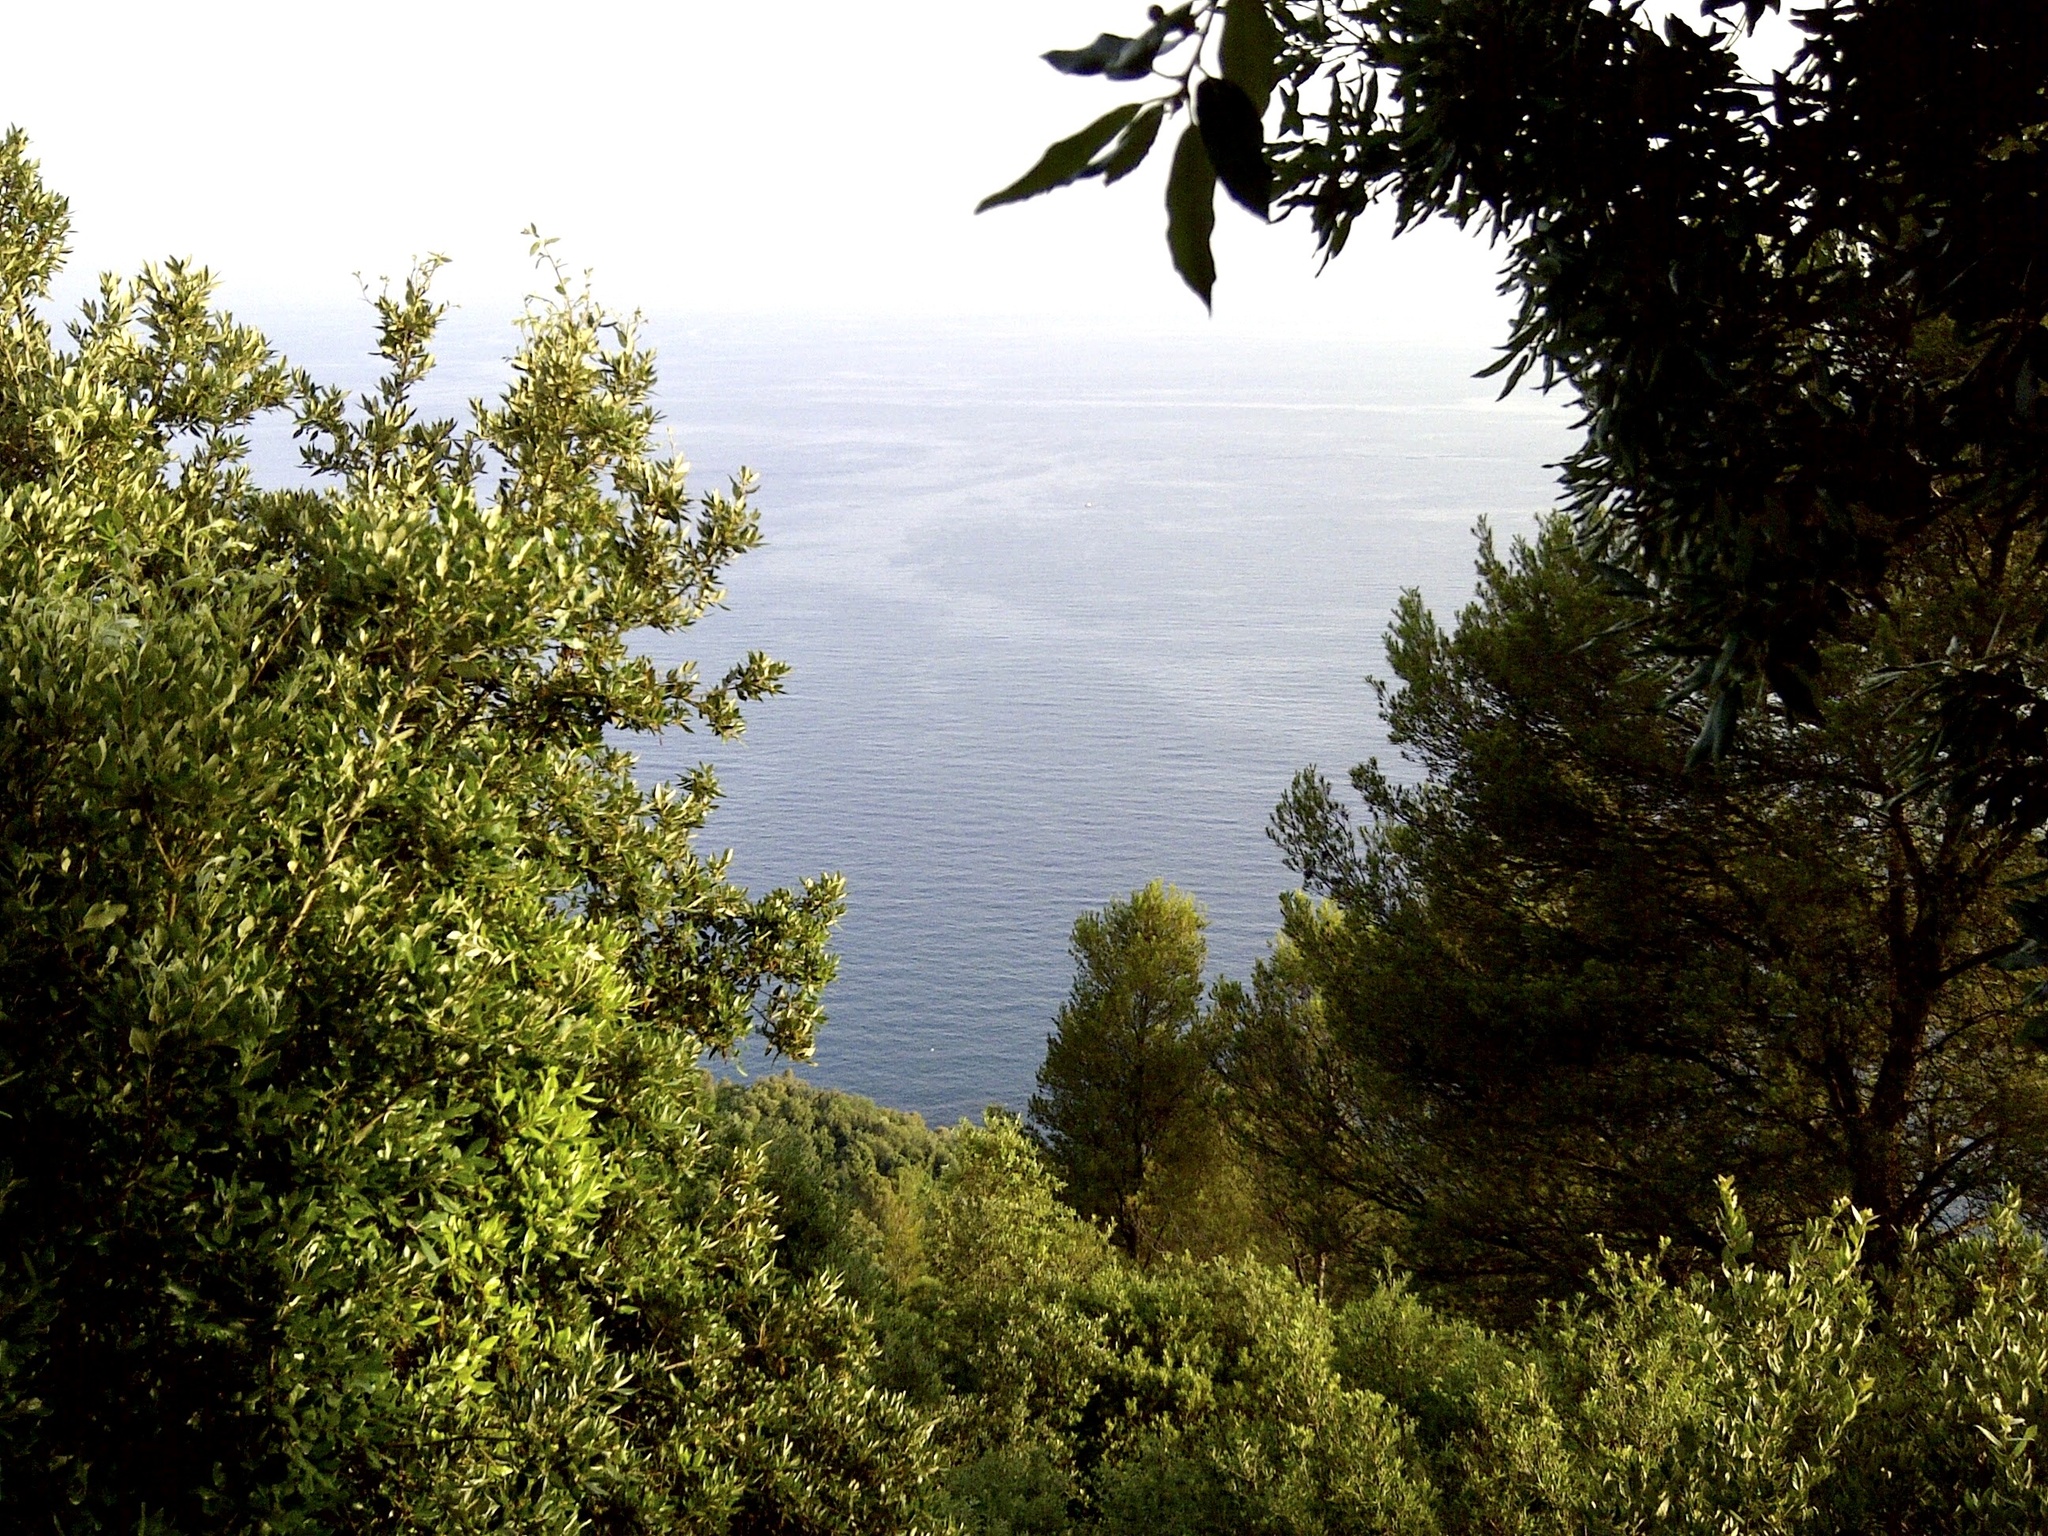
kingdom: Plantae
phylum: Tracheophyta
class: Magnoliopsida
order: Fagales
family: Fagaceae
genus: Quercus
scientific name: Quercus ilex
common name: Evergreen oak
